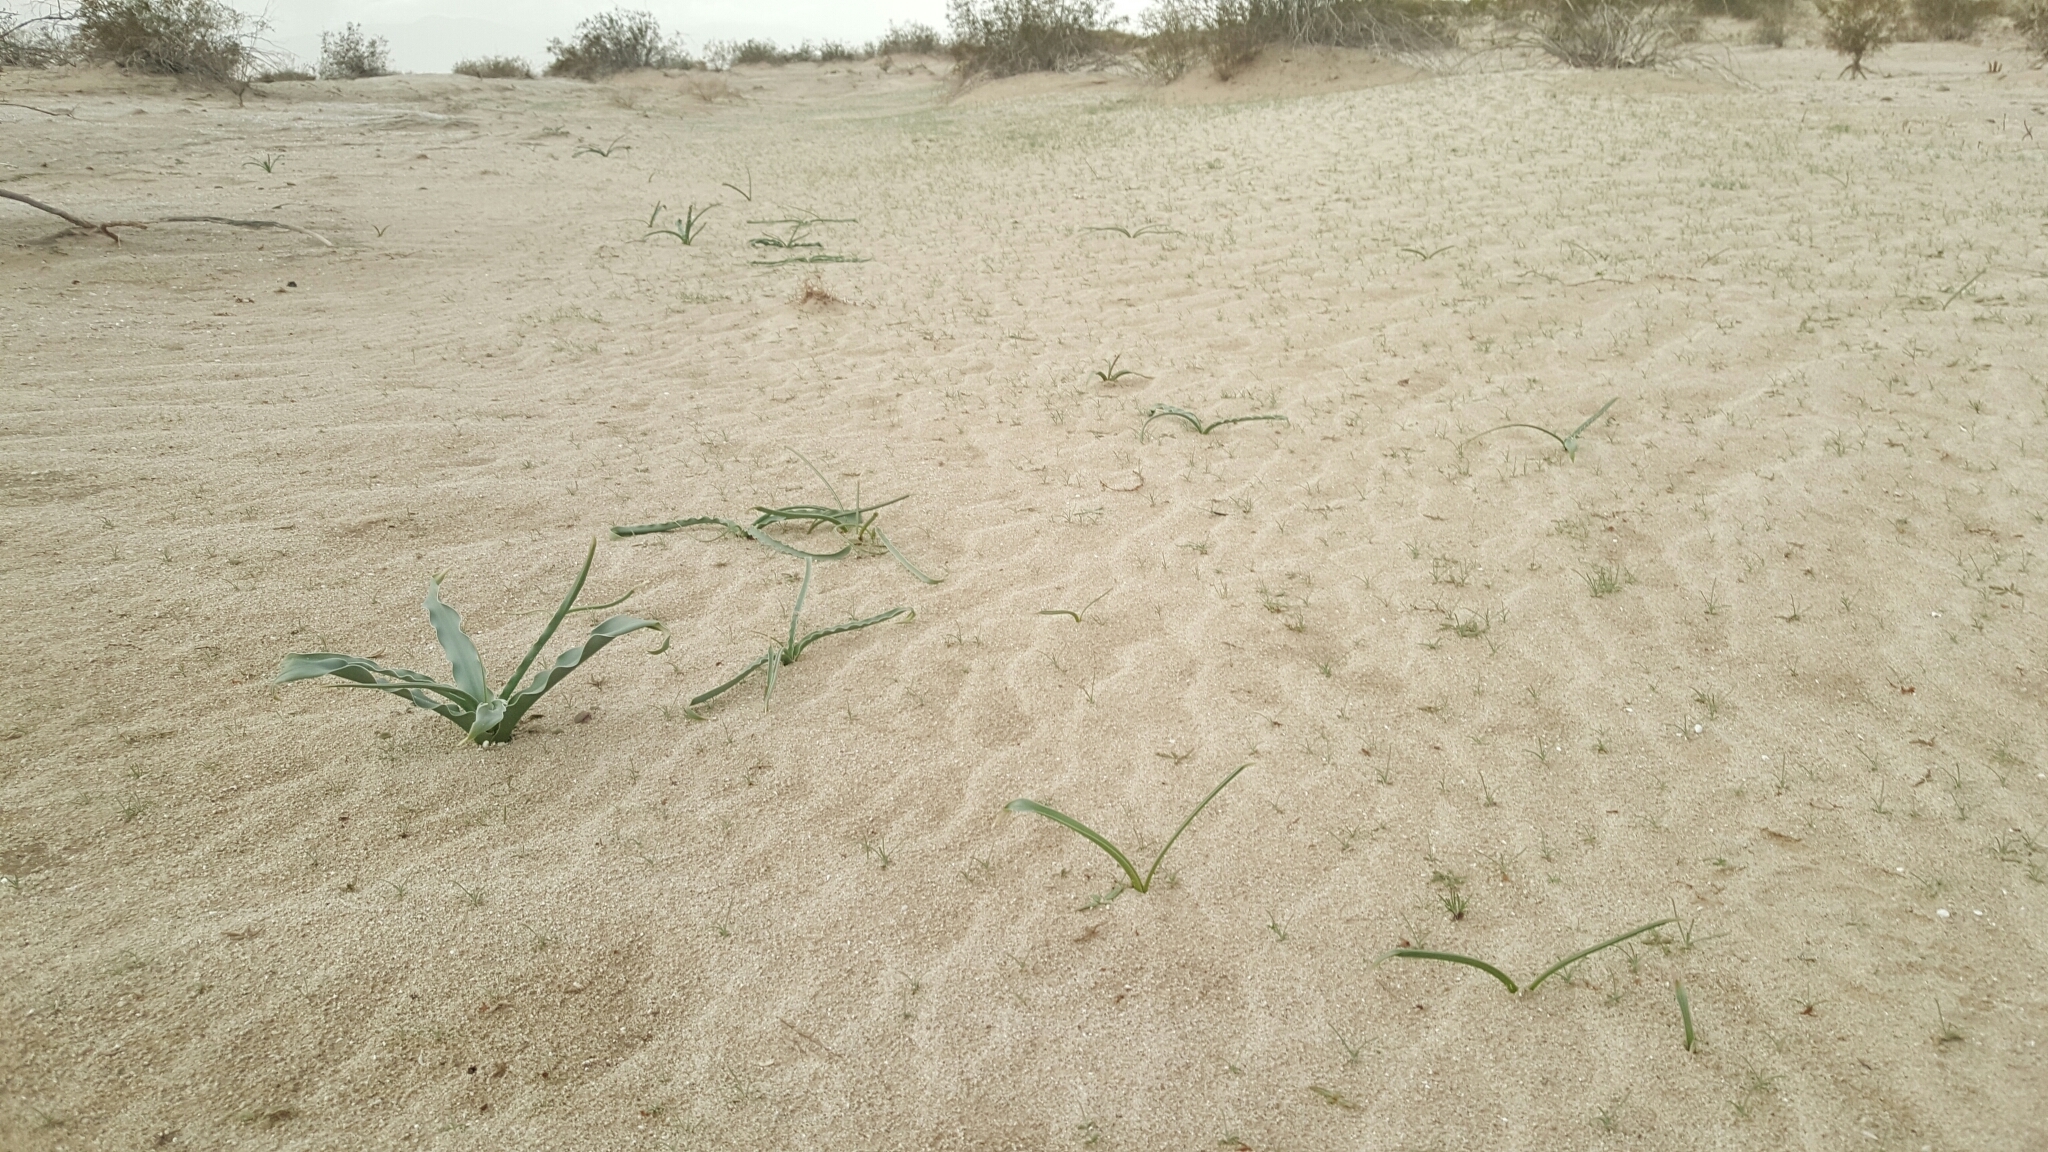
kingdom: Plantae
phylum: Tracheophyta
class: Liliopsida
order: Asparagales
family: Asparagaceae
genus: Hesperocallis
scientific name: Hesperocallis undulata
